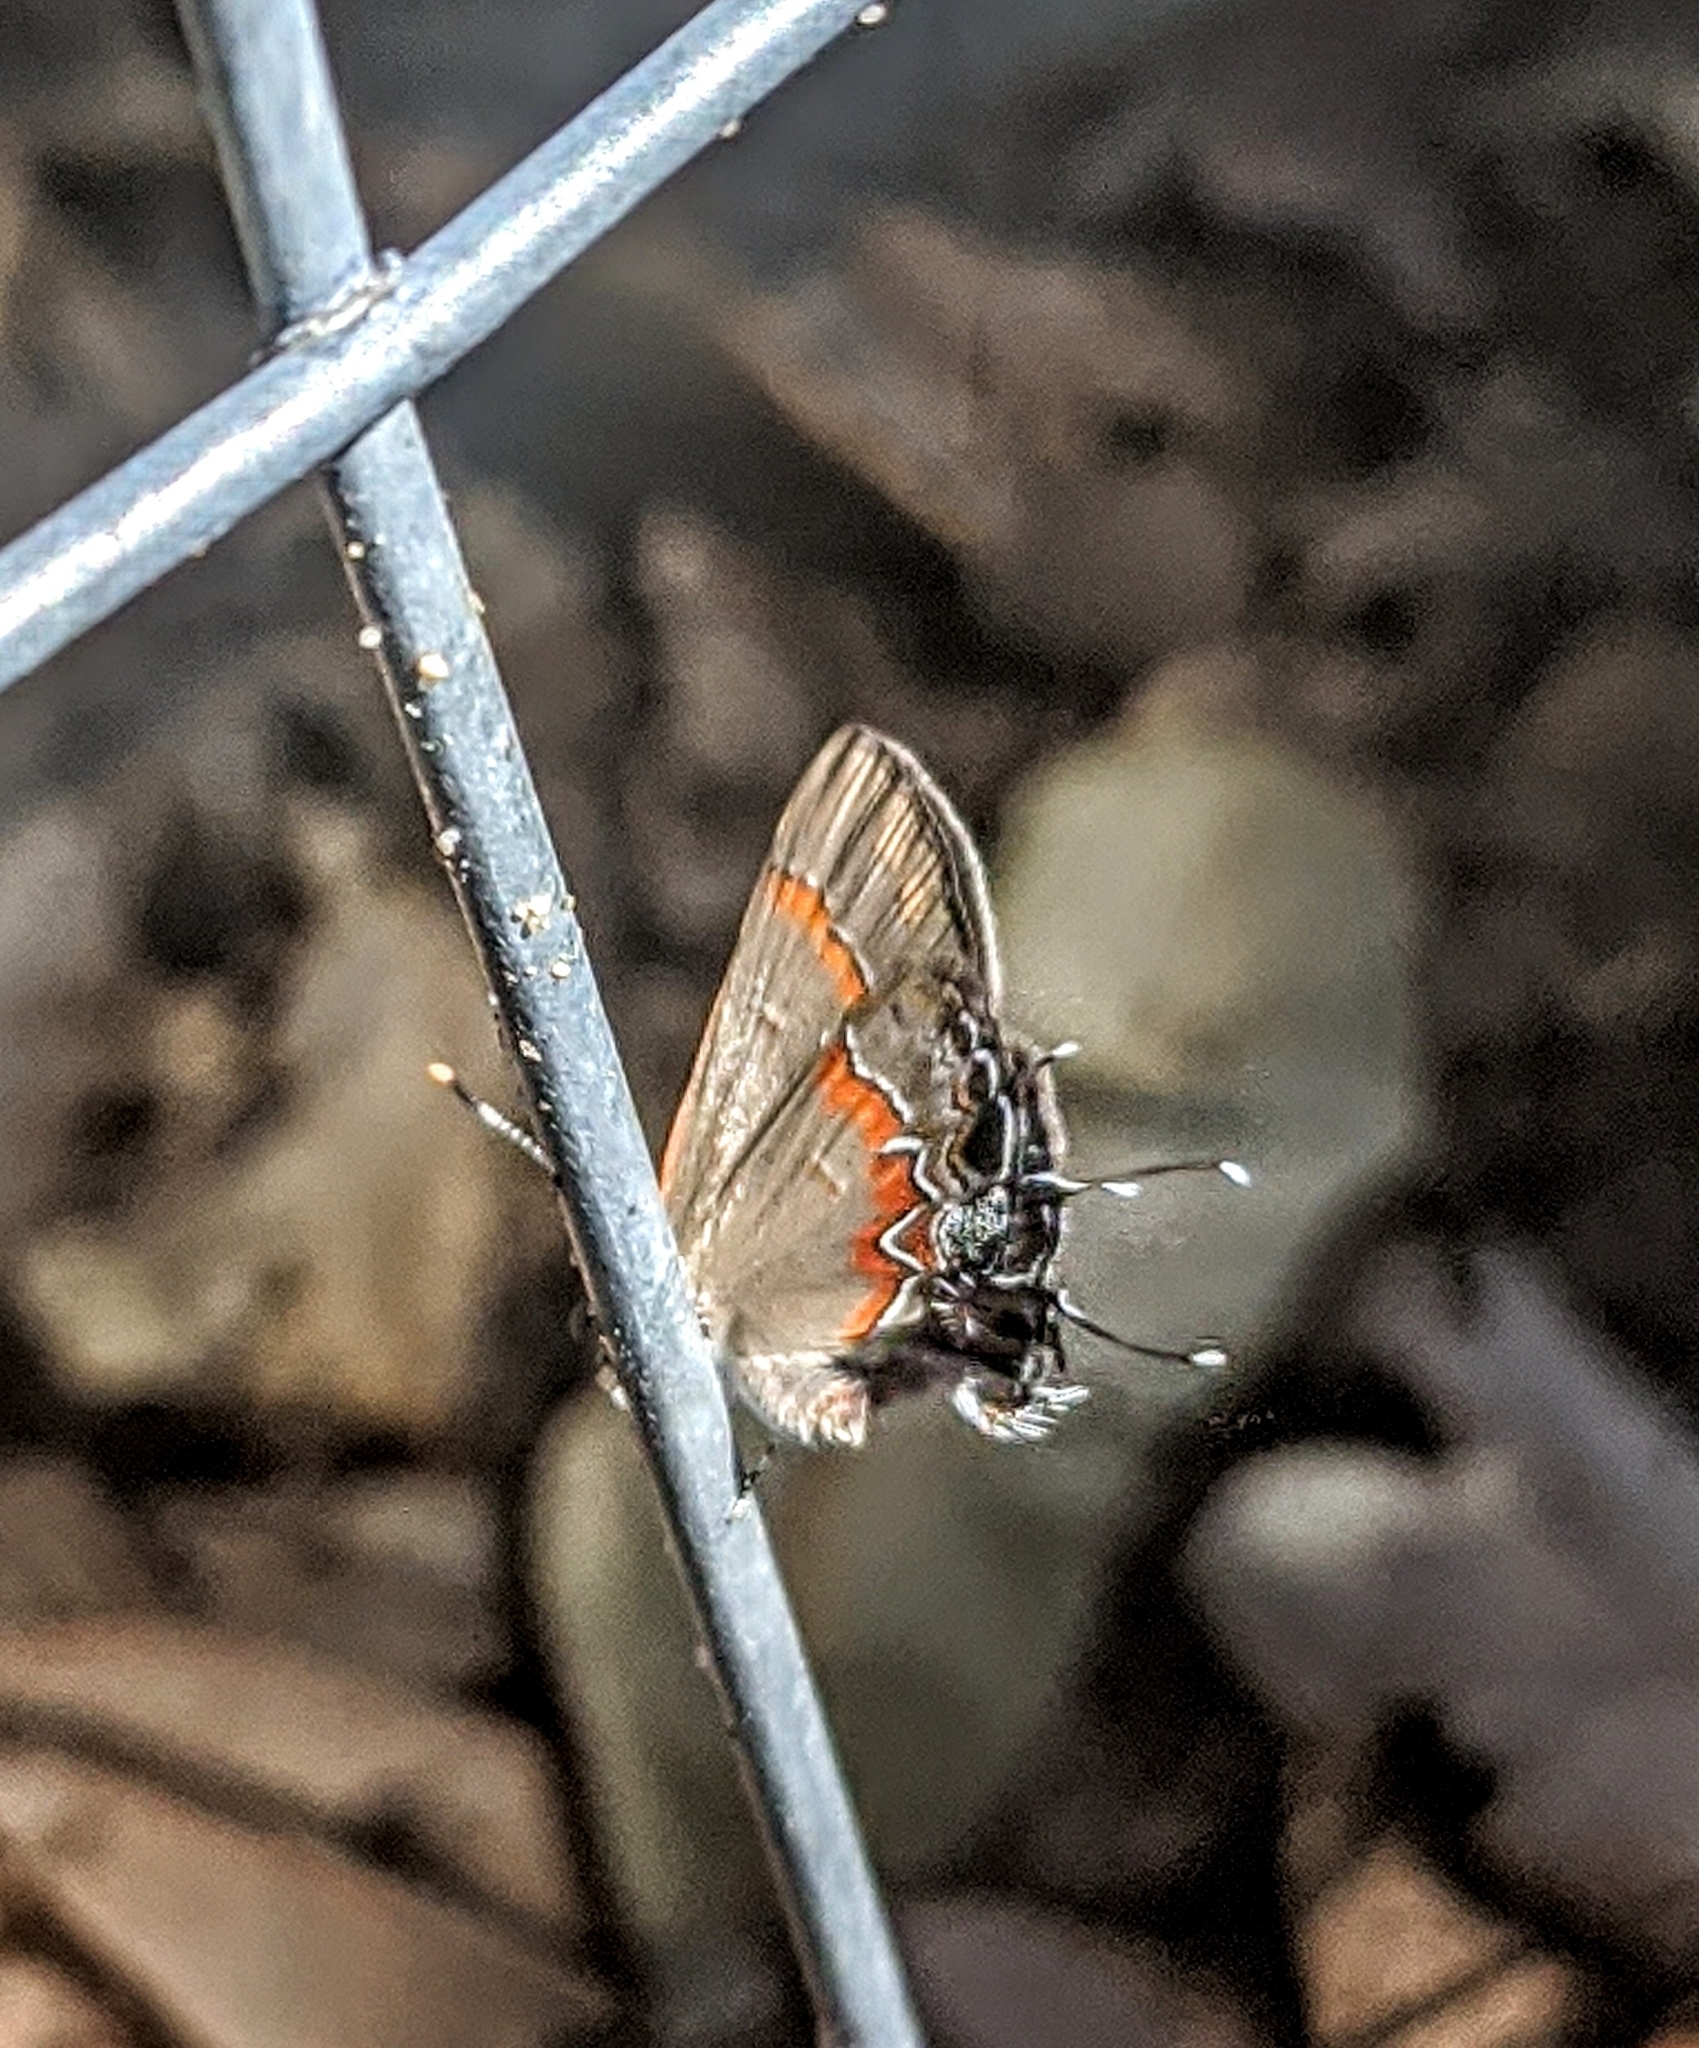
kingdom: Animalia
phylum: Arthropoda
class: Insecta
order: Lepidoptera
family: Lycaenidae
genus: Calycopis
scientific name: Calycopis cecrops
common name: Red-banded hairstreak
